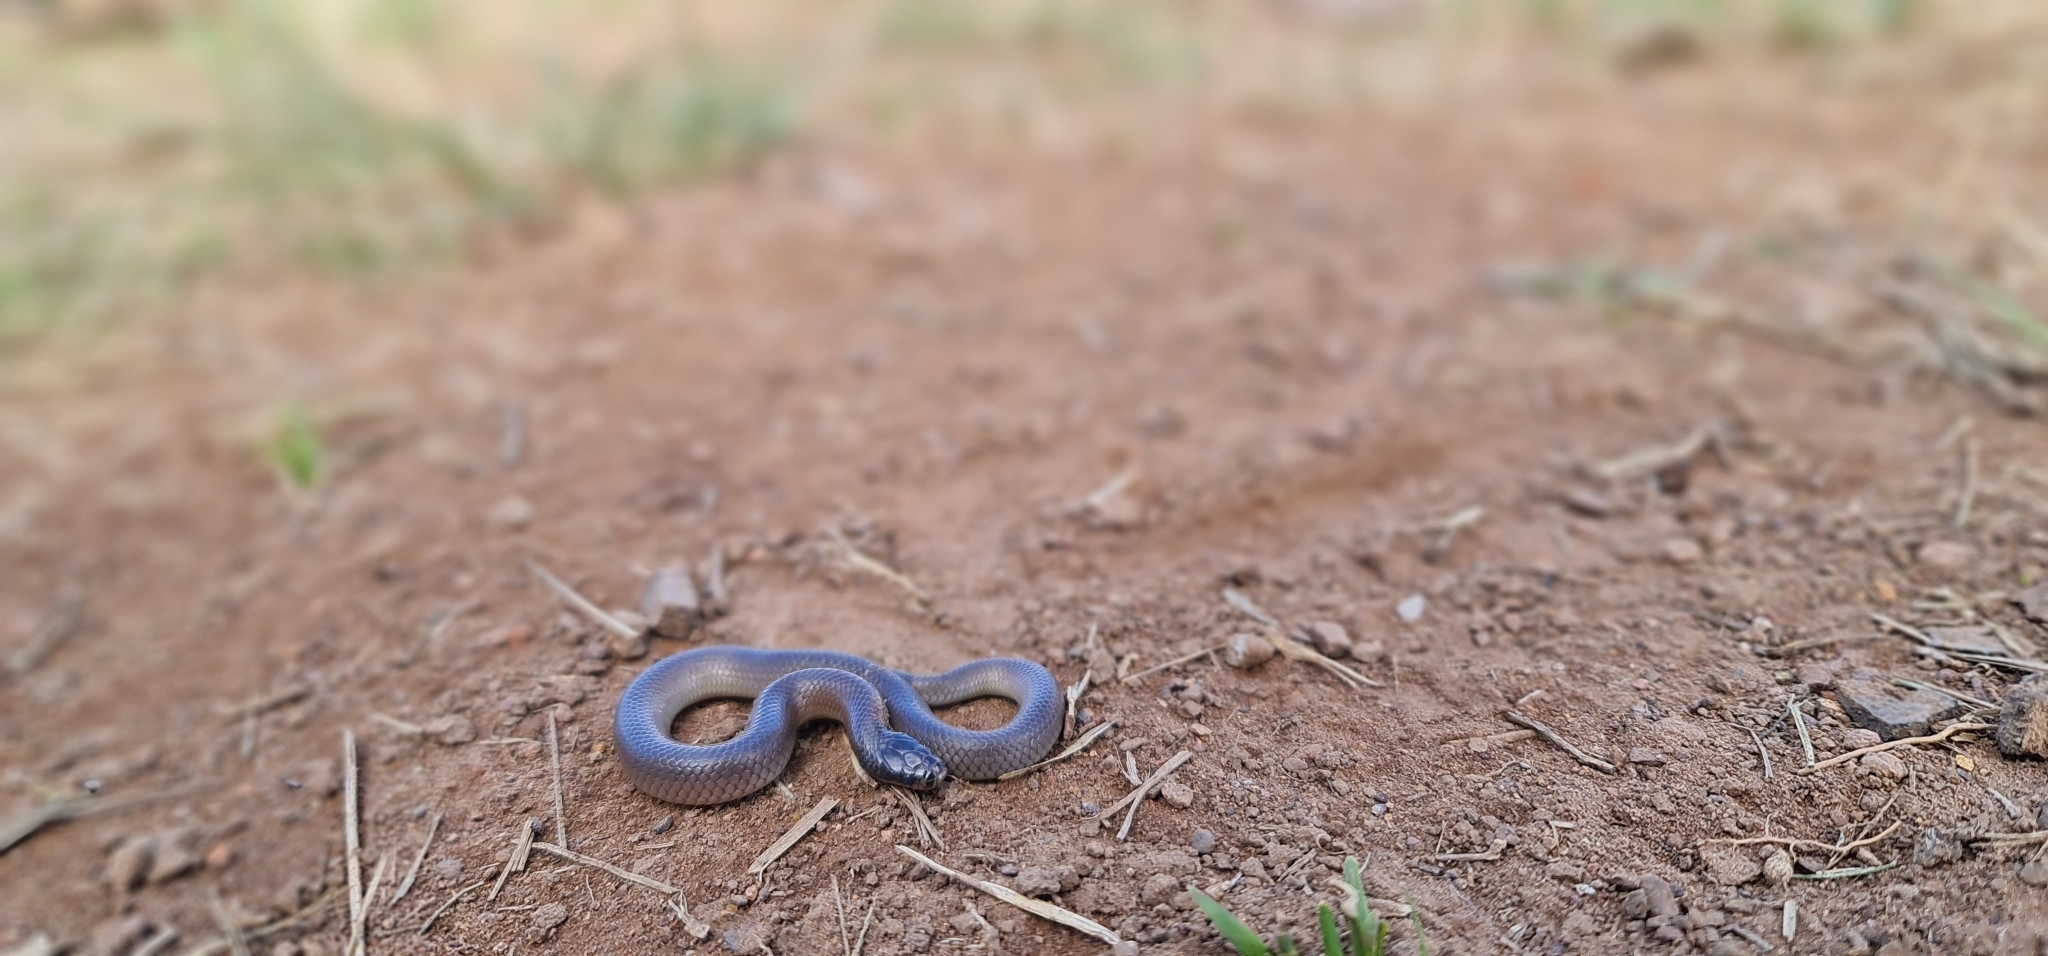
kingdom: Animalia
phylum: Chordata
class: Squamata
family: Elapidae
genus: Suta
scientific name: Suta dwyeri
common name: Variable black-naped snake
